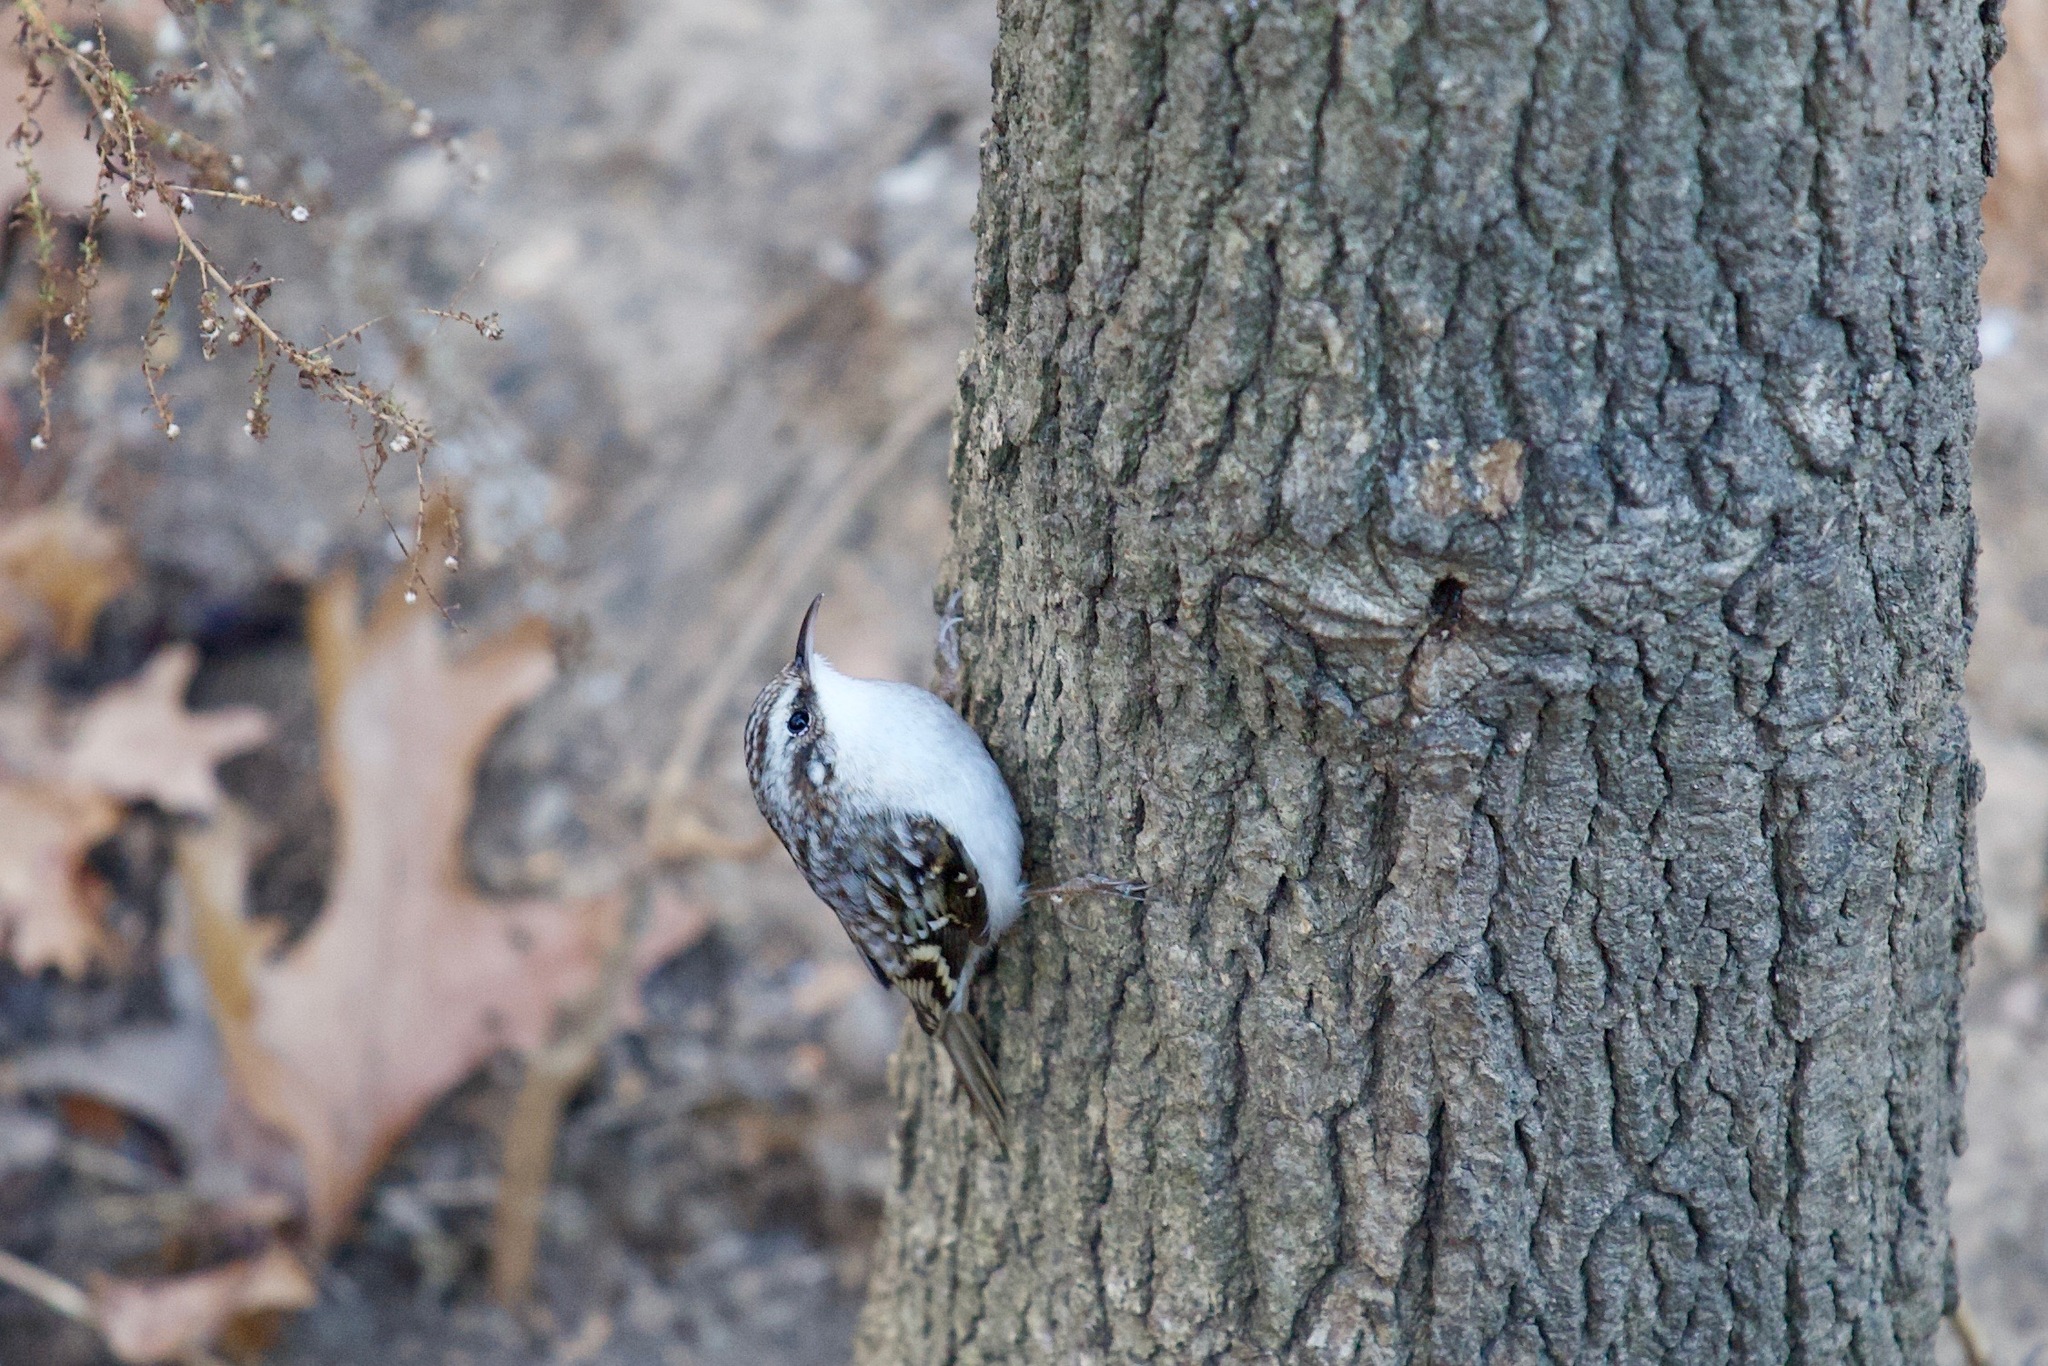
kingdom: Animalia
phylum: Chordata
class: Aves
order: Passeriformes
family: Certhiidae
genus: Certhia
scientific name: Certhia americana
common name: Brown creeper
